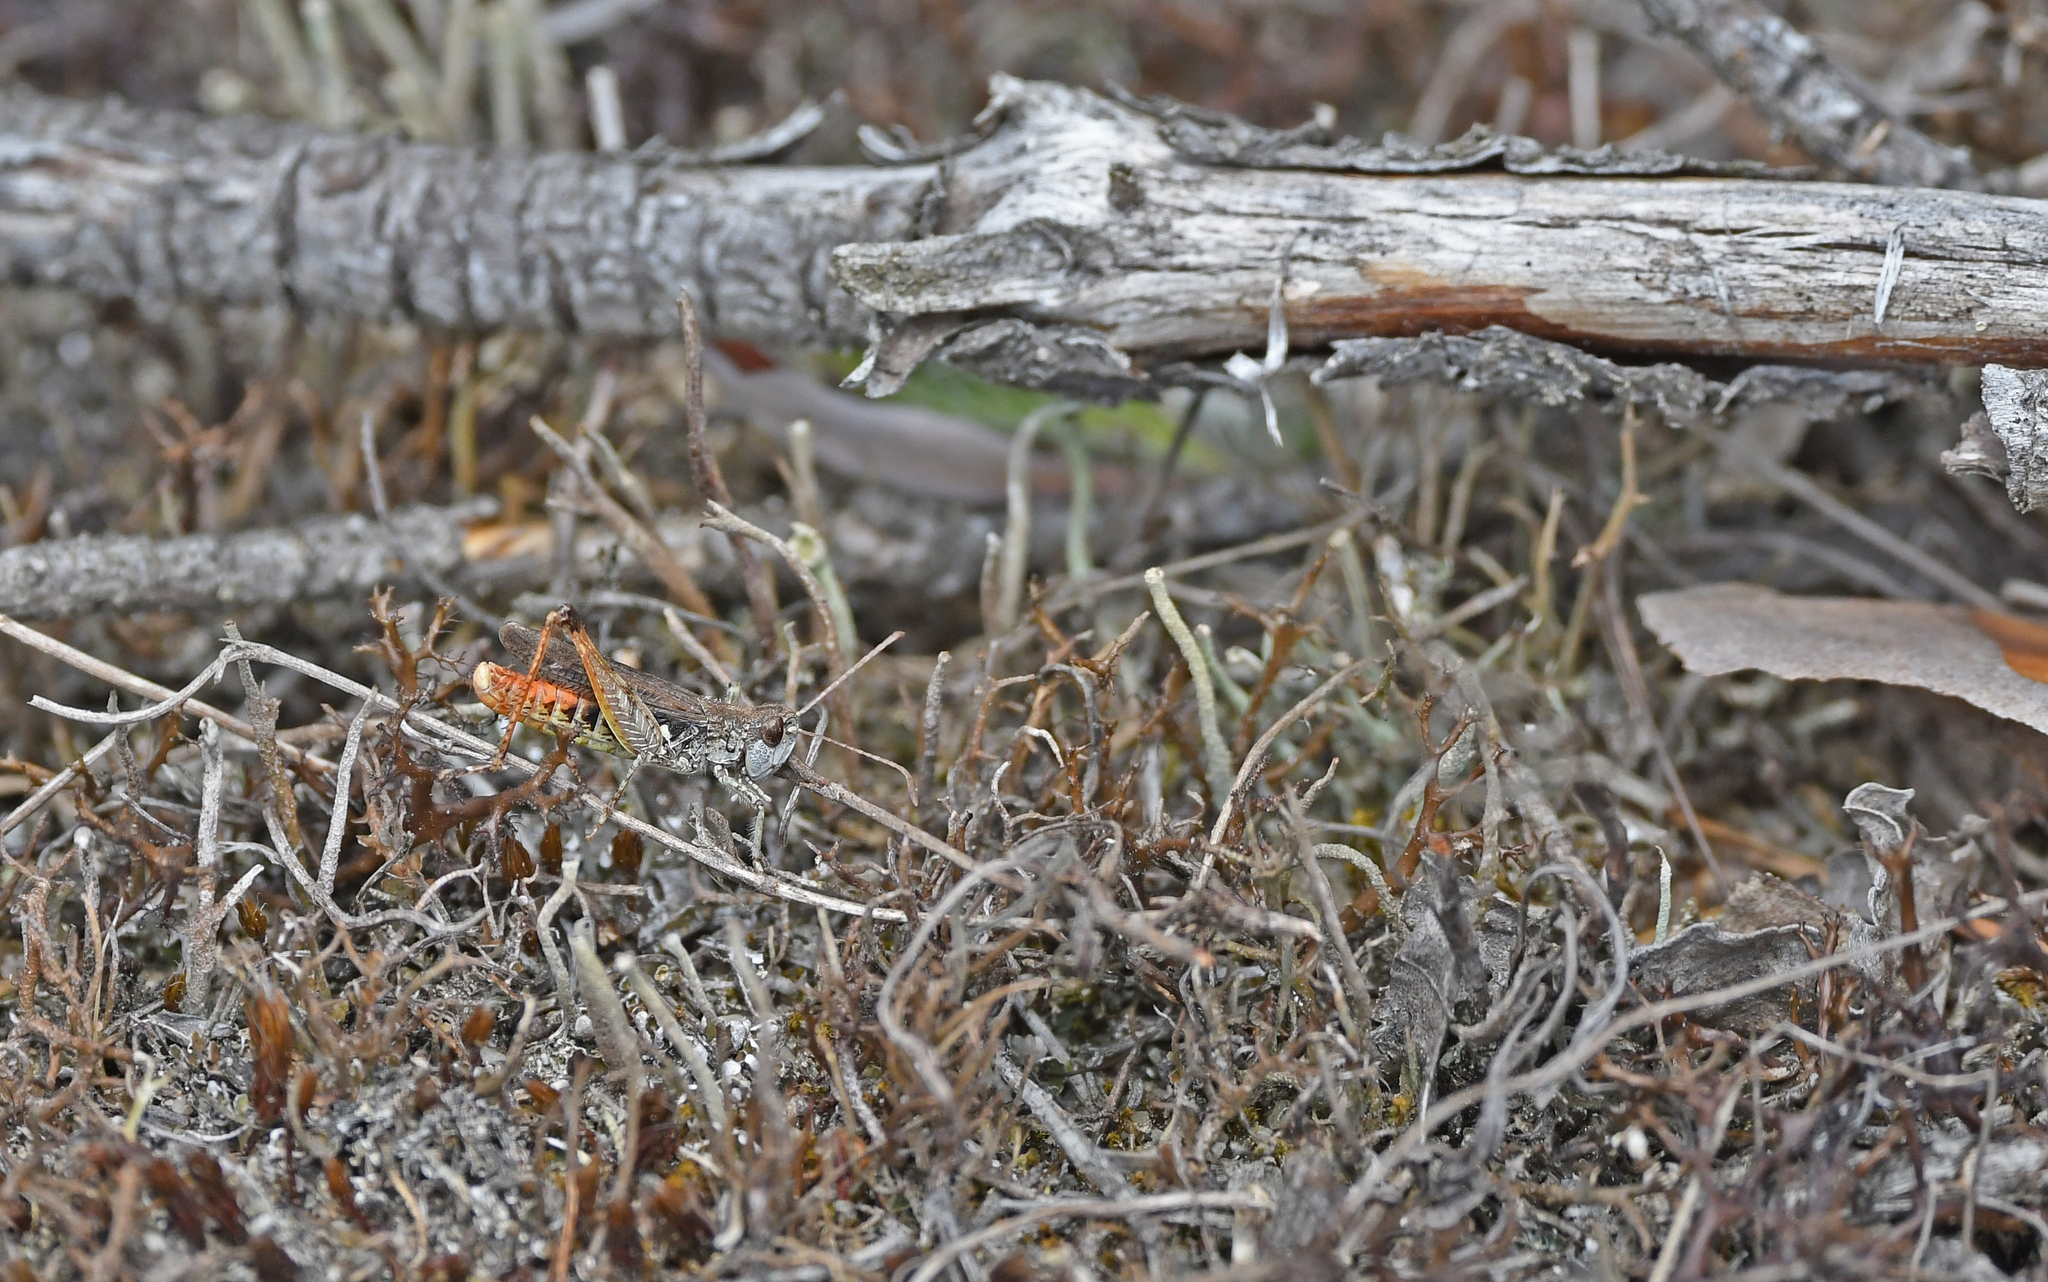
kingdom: Animalia
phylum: Arthropoda
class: Insecta
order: Orthoptera
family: Acrididae
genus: Myrmeleotettix
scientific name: Myrmeleotettix maculatus
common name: Mottled grasshopper
